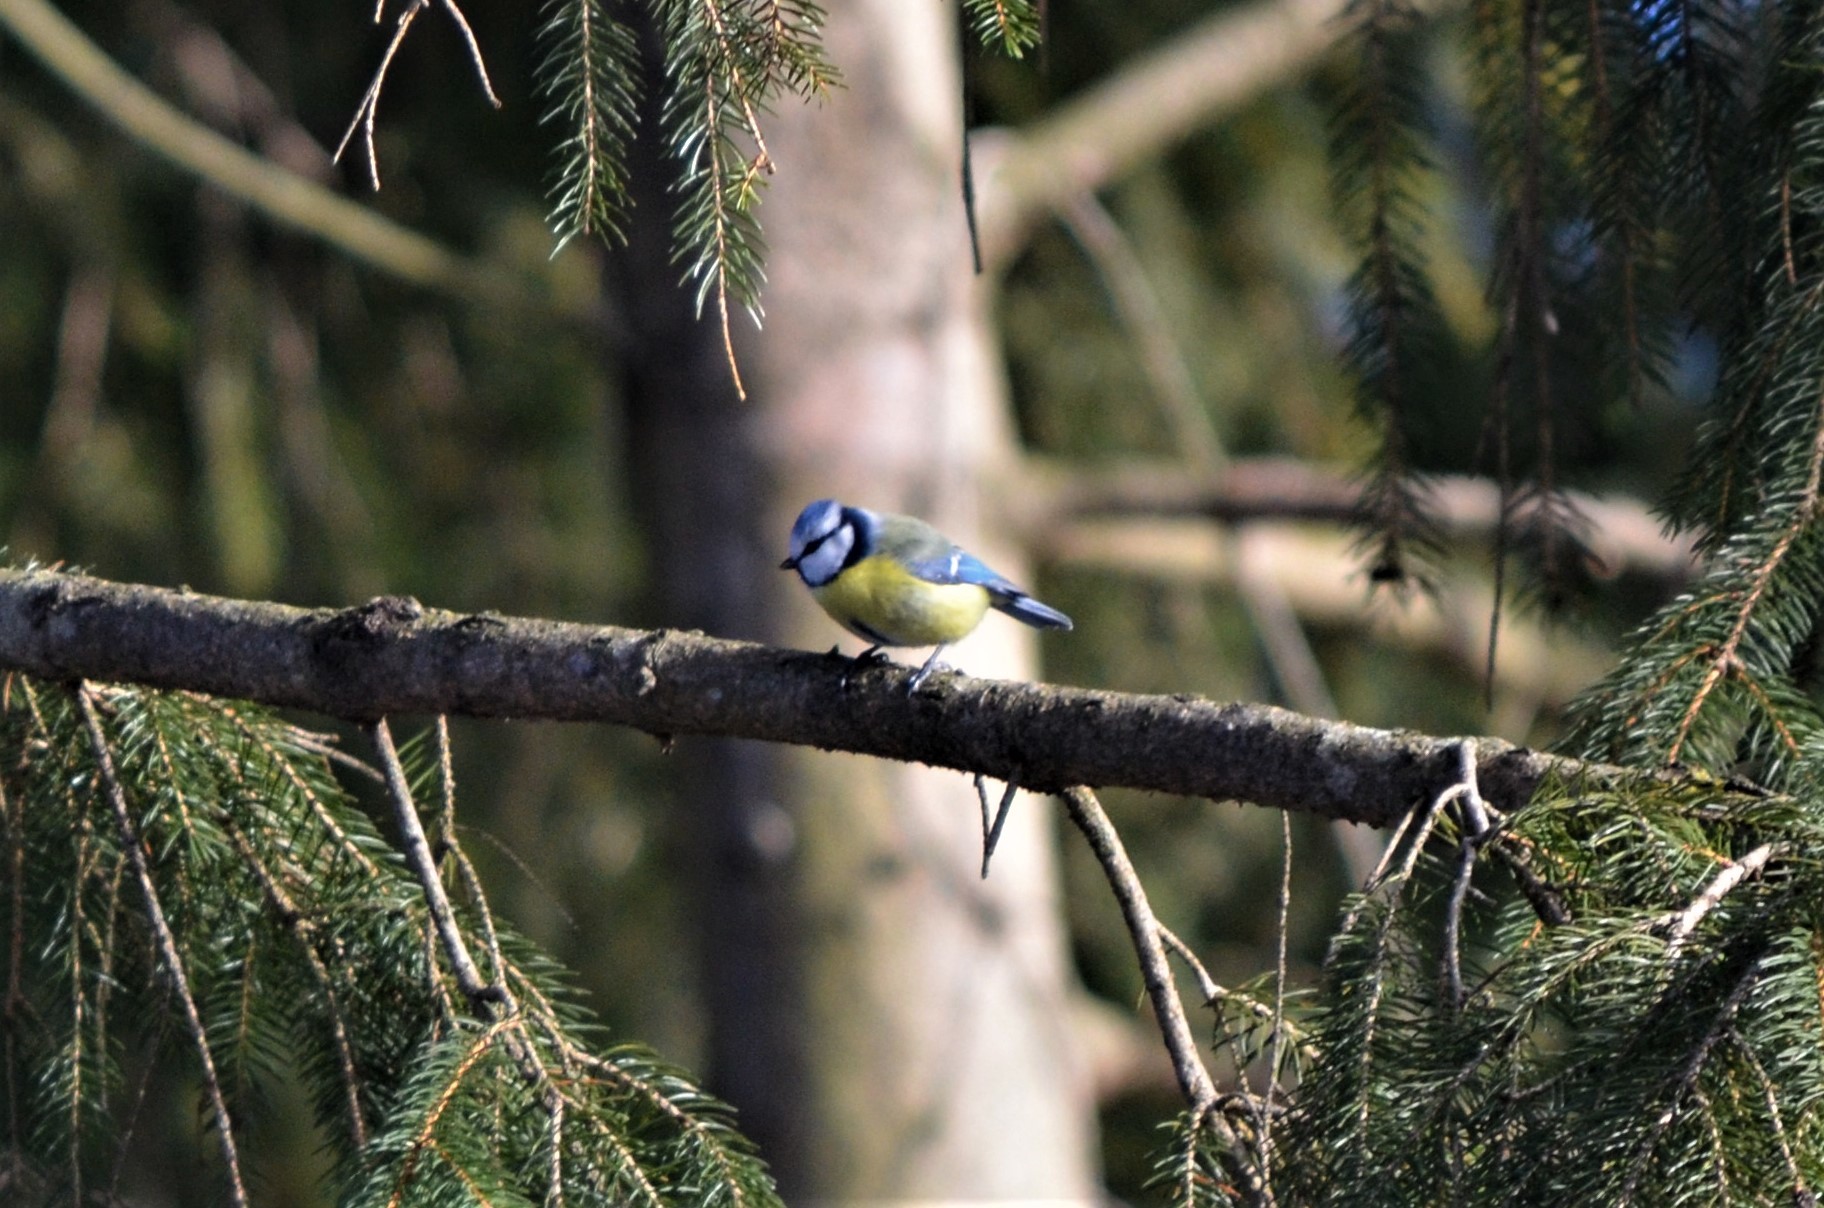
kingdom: Animalia
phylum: Chordata
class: Aves
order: Passeriformes
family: Paridae
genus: Cyanistes
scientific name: Cyanistes caeruleus
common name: Eurasian blue tit
